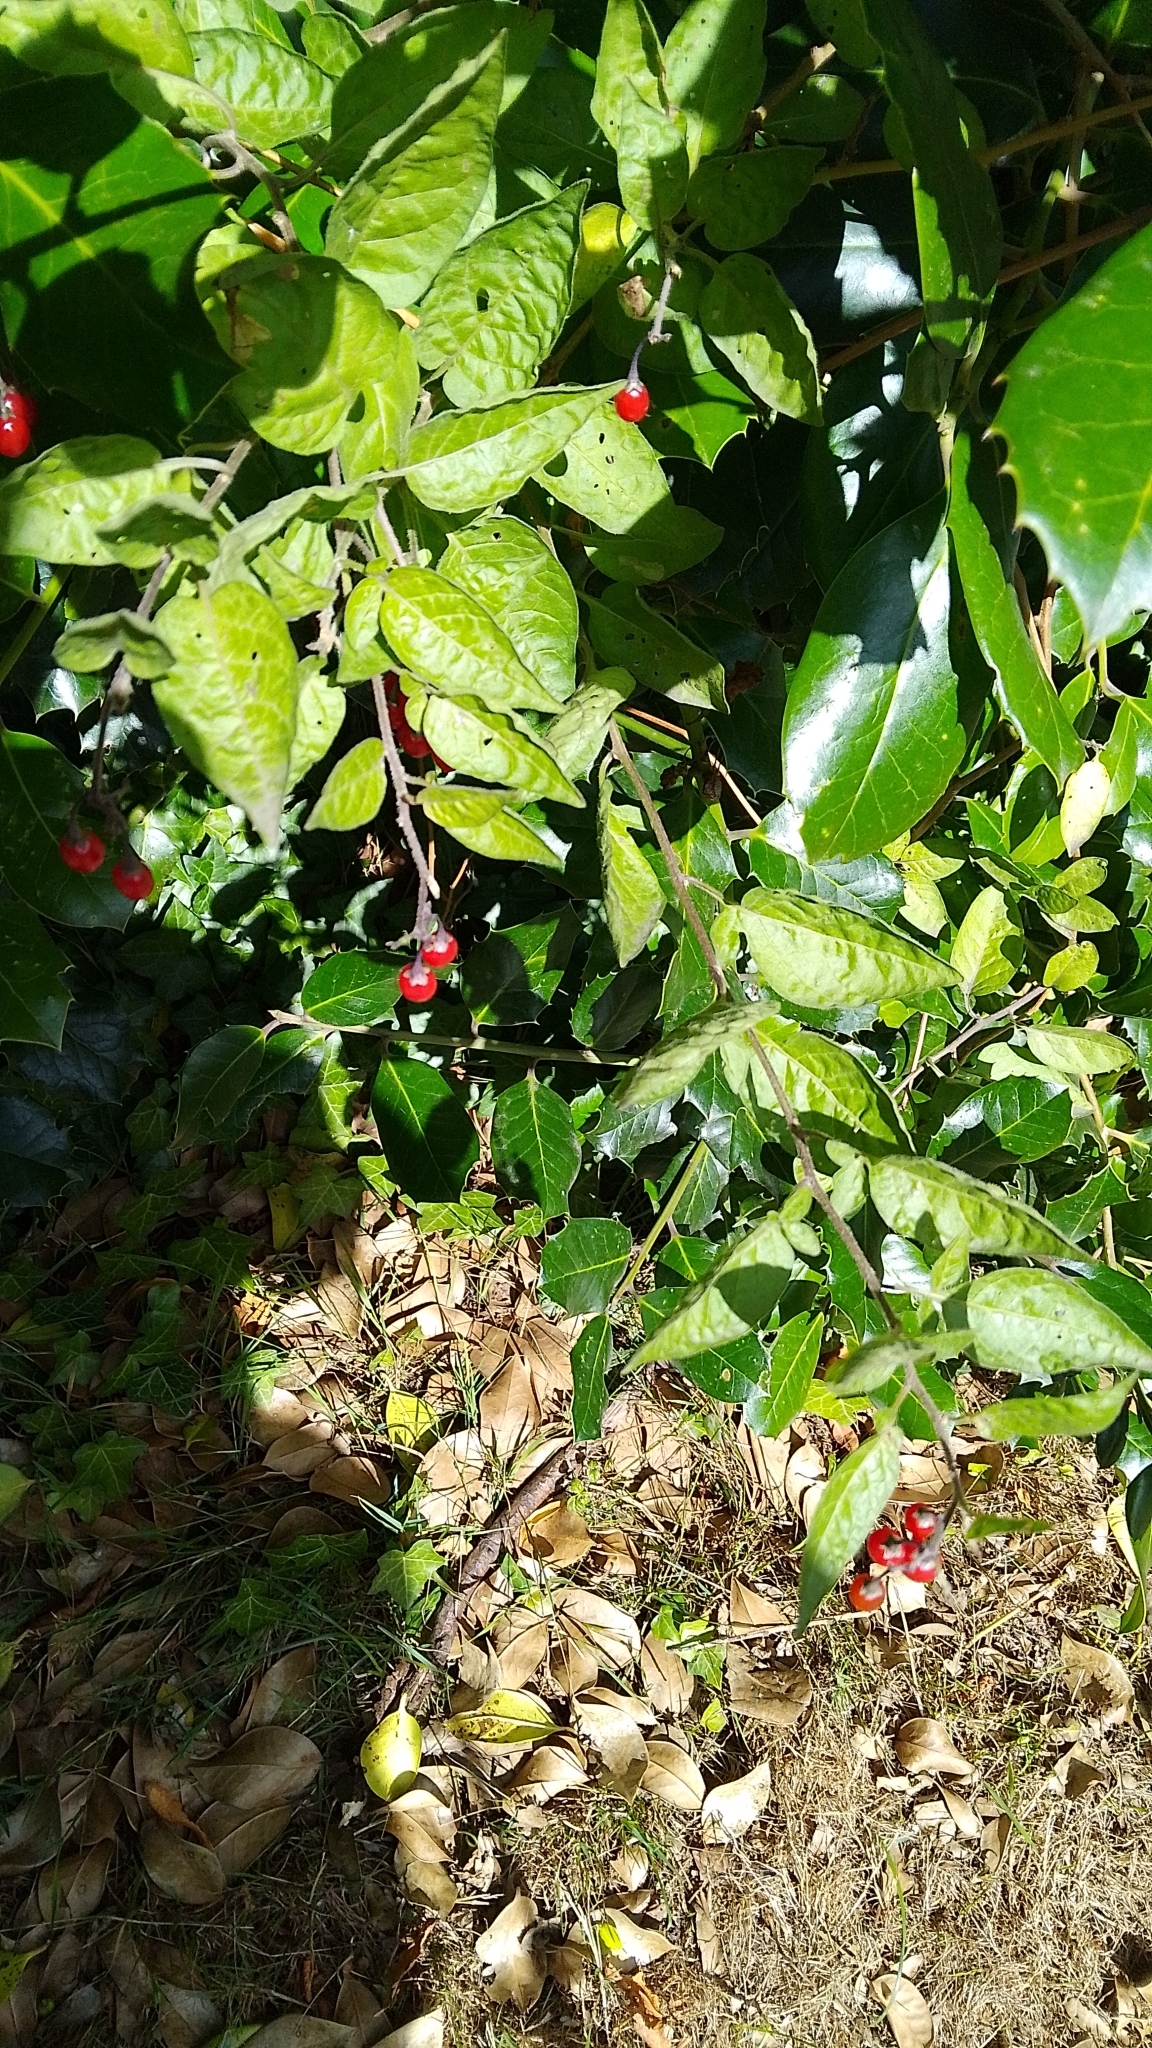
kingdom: Plantae
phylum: Tracheophyta
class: Magnoliopsida
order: Solanales
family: Solanaceae
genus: Solanum
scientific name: Solanum dulcamara
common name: Climbing nightshade
